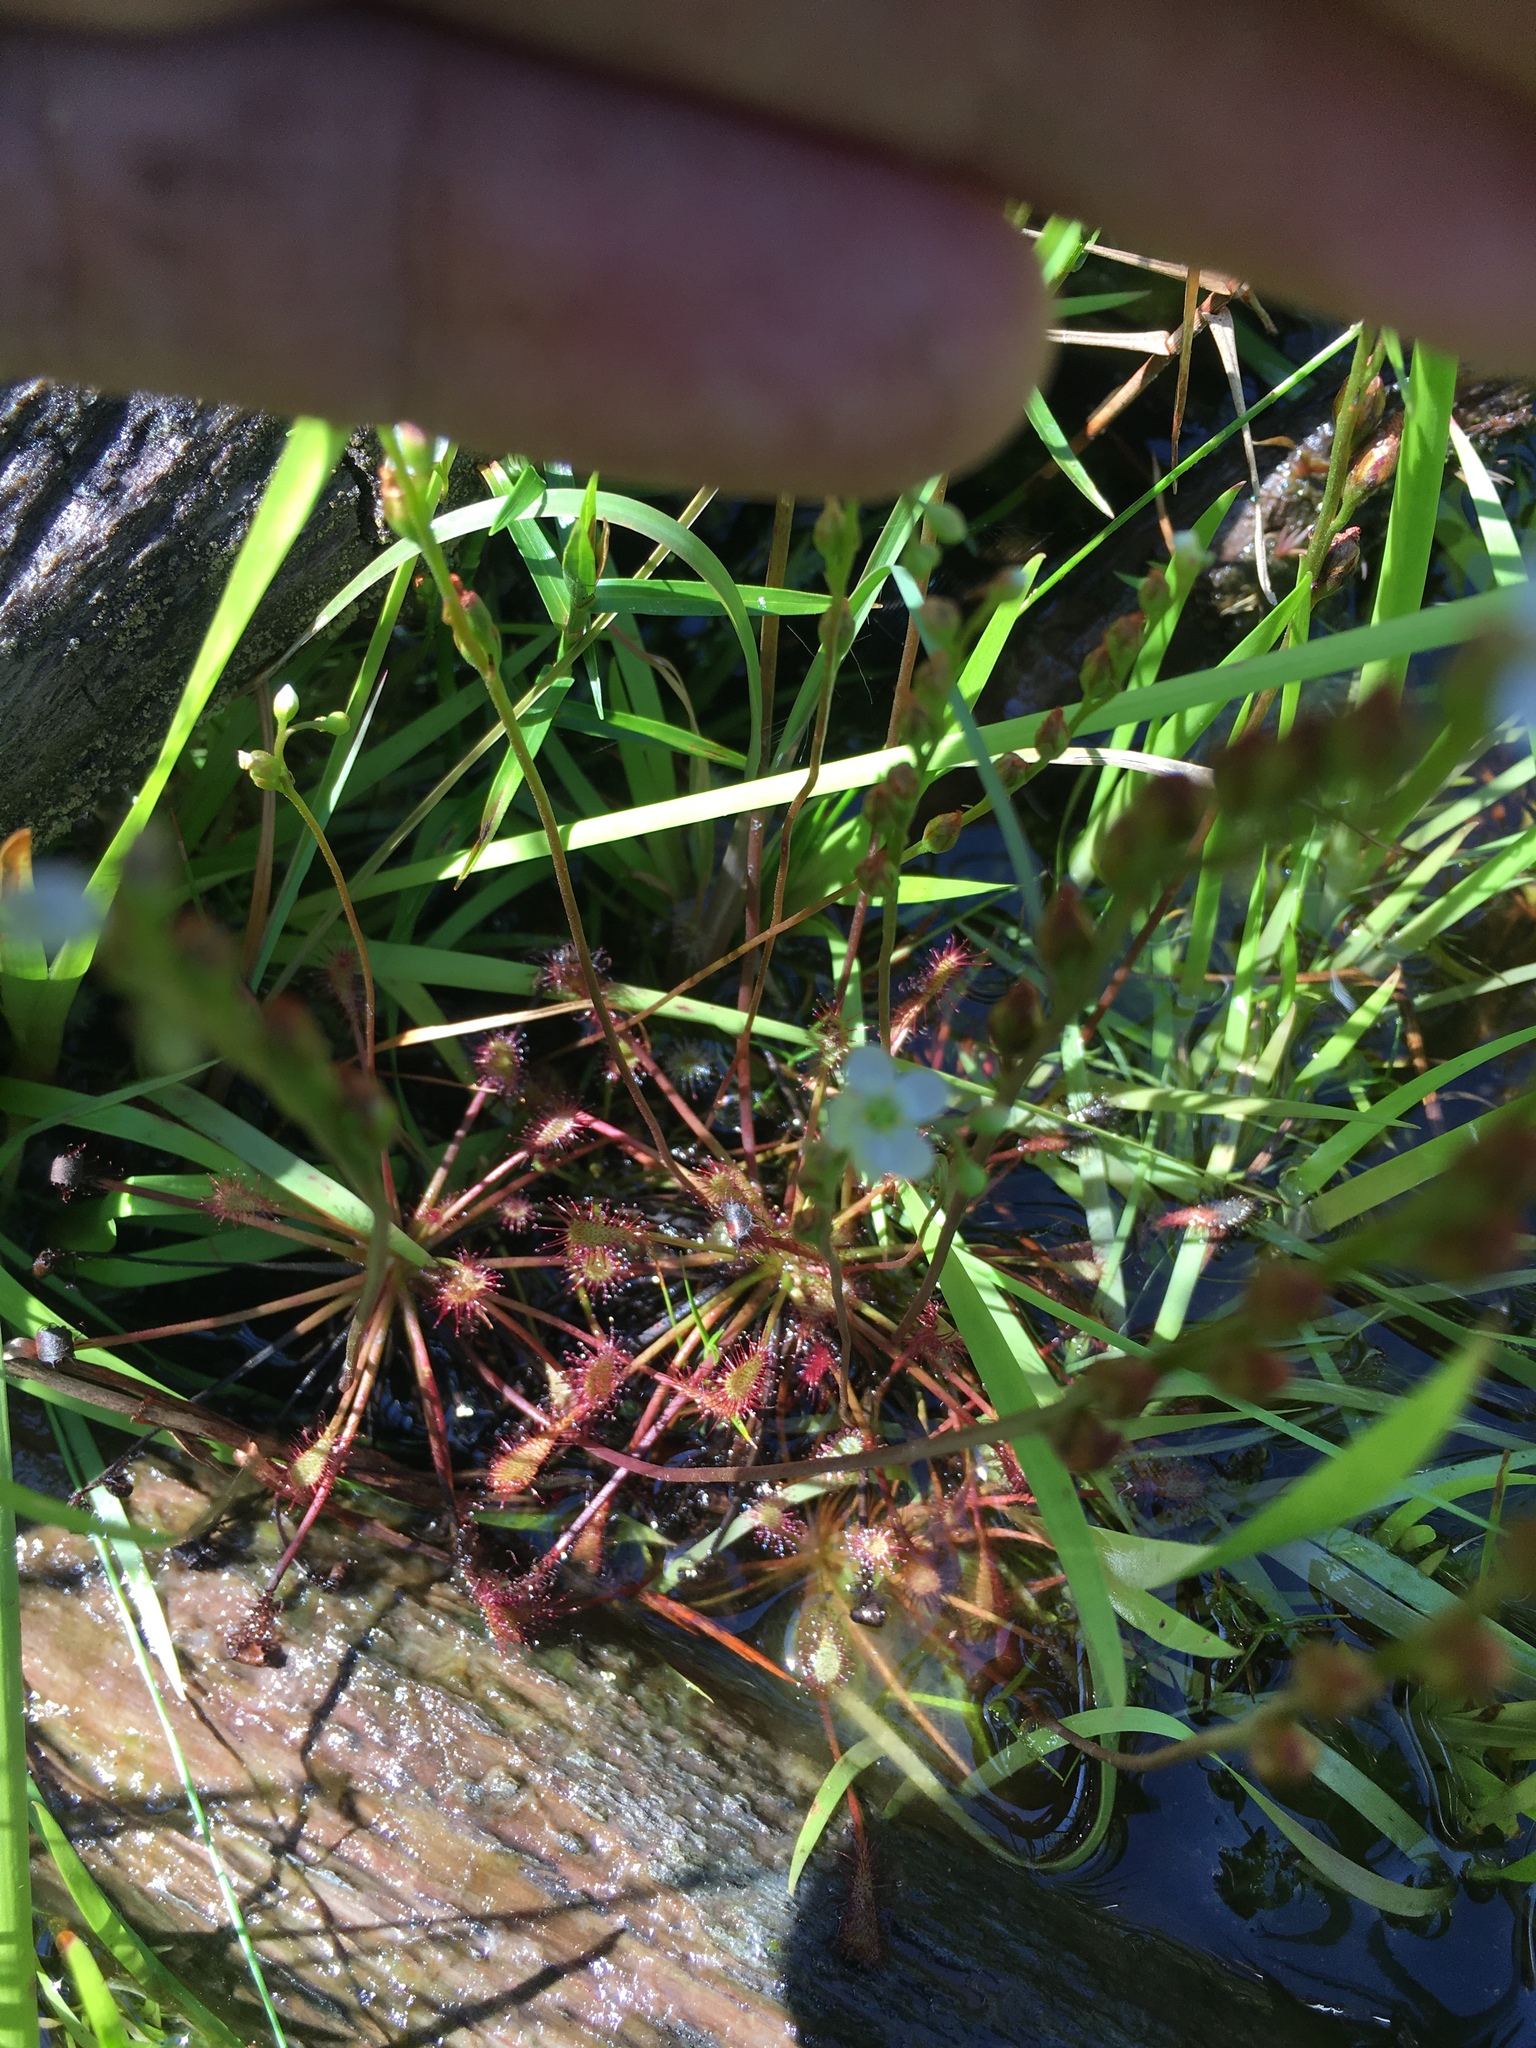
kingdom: Plantae
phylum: Tracheophyta
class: Magnoliopsida
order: Caryophyllales
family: Droseraceae
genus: Drosera
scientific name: Drosera intermedia
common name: Oblong-leaved sundew
